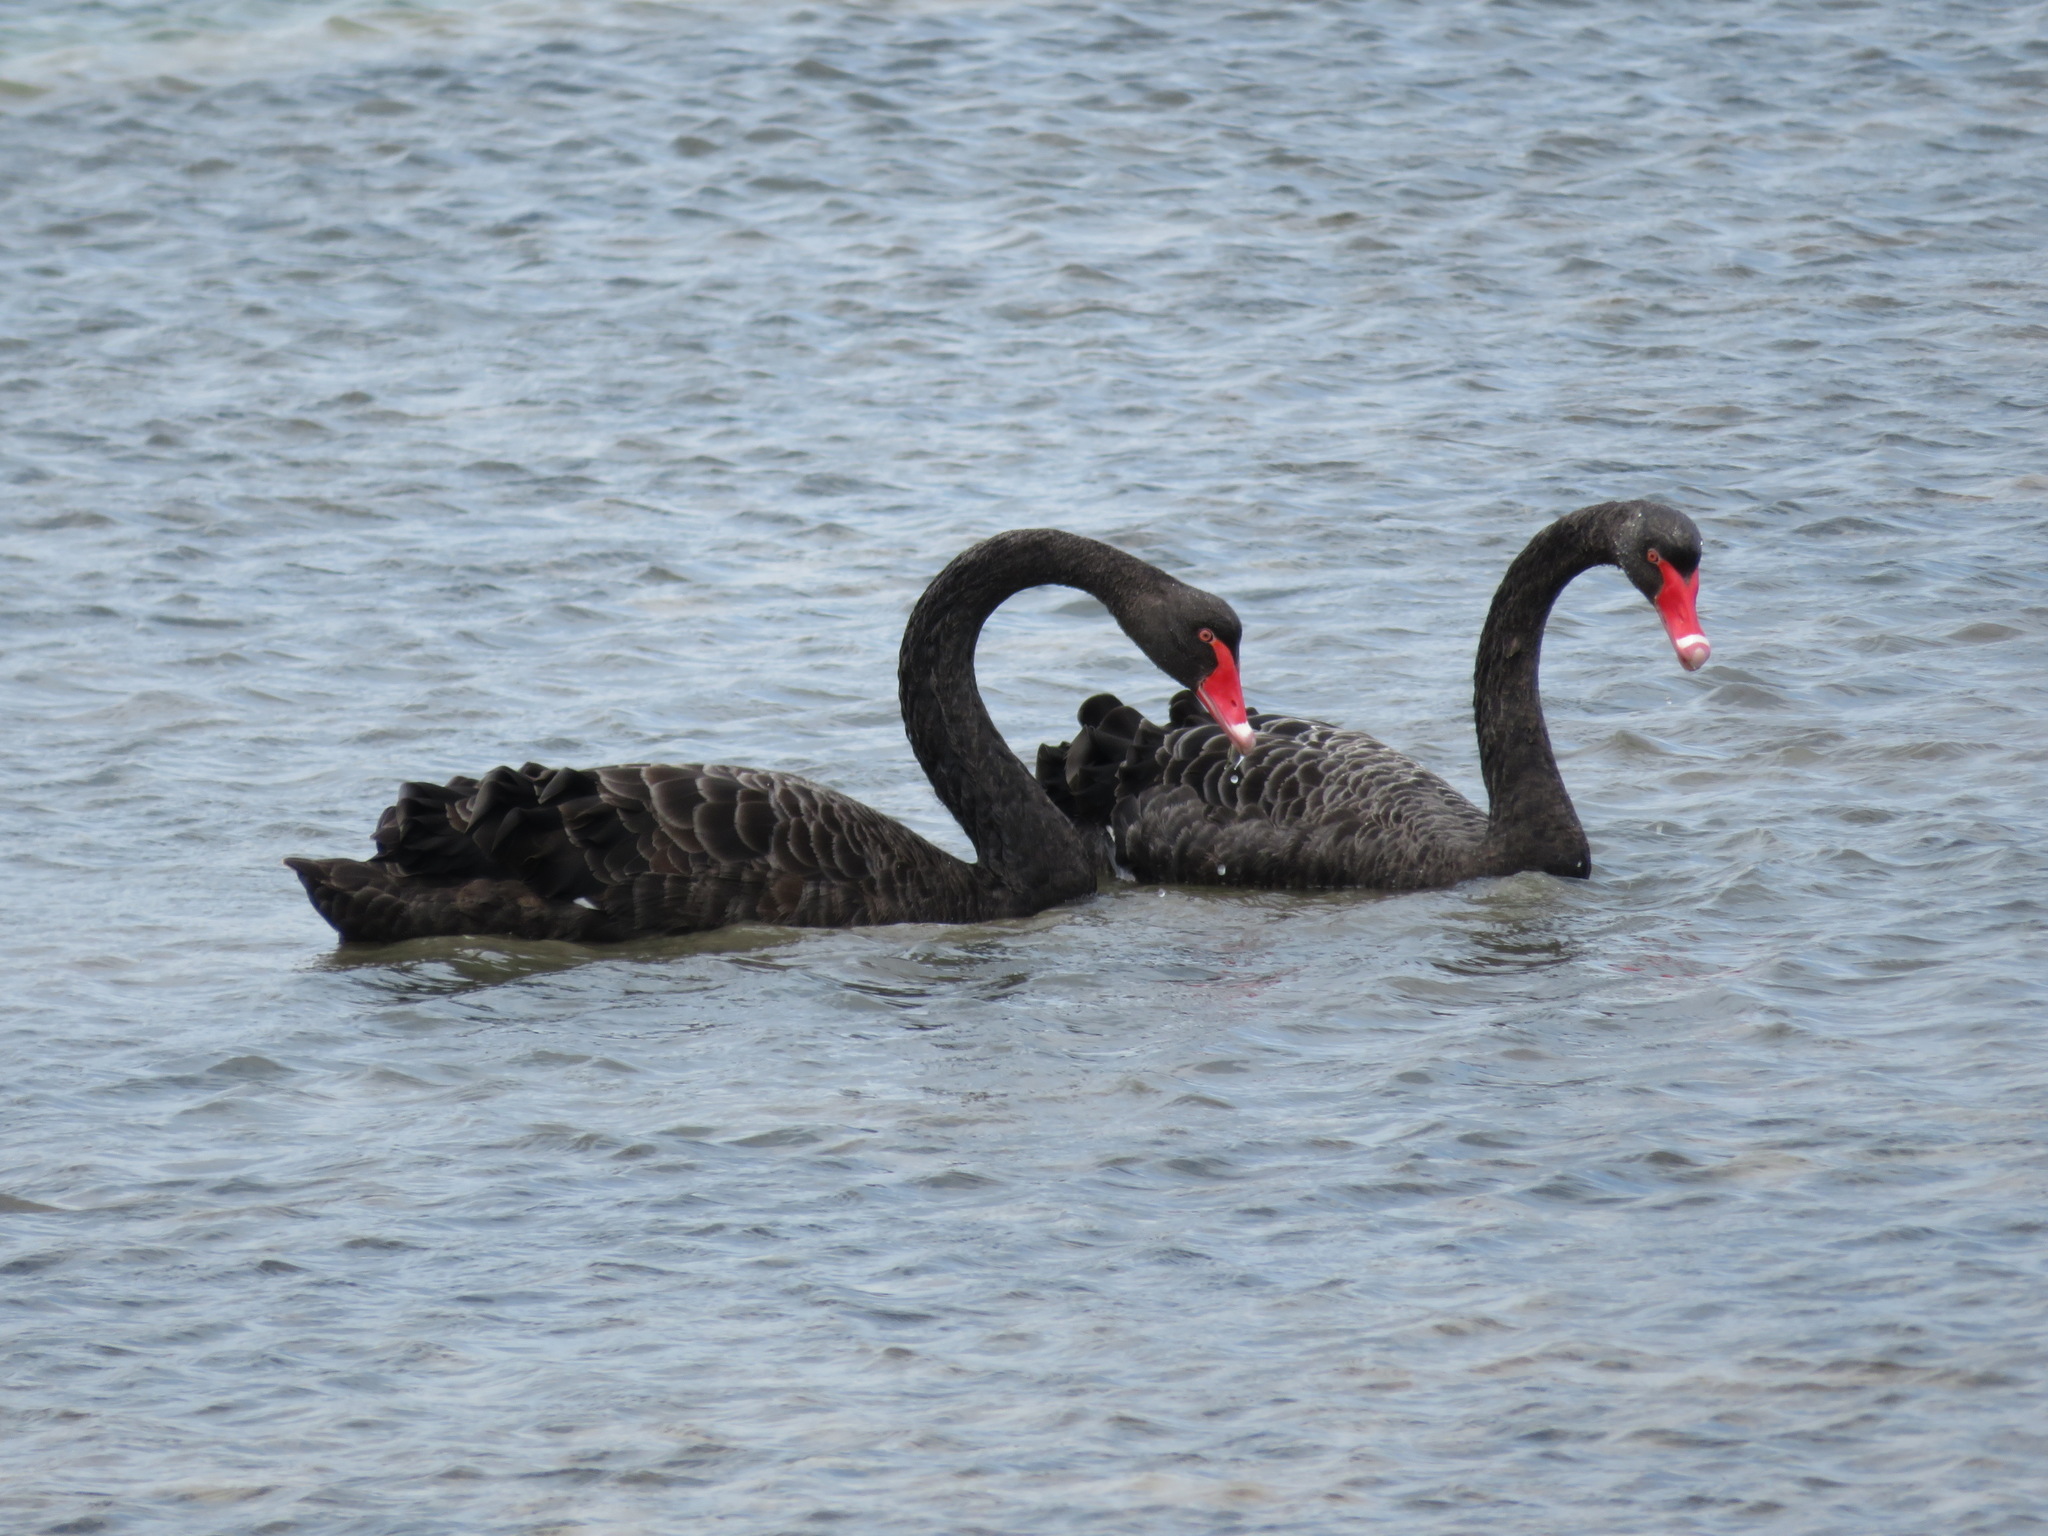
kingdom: Animalia
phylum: Chordata
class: Aves
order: Anseriformes
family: Anatidae
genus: Cygnus
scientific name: Cygnus atratus
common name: Black swan
